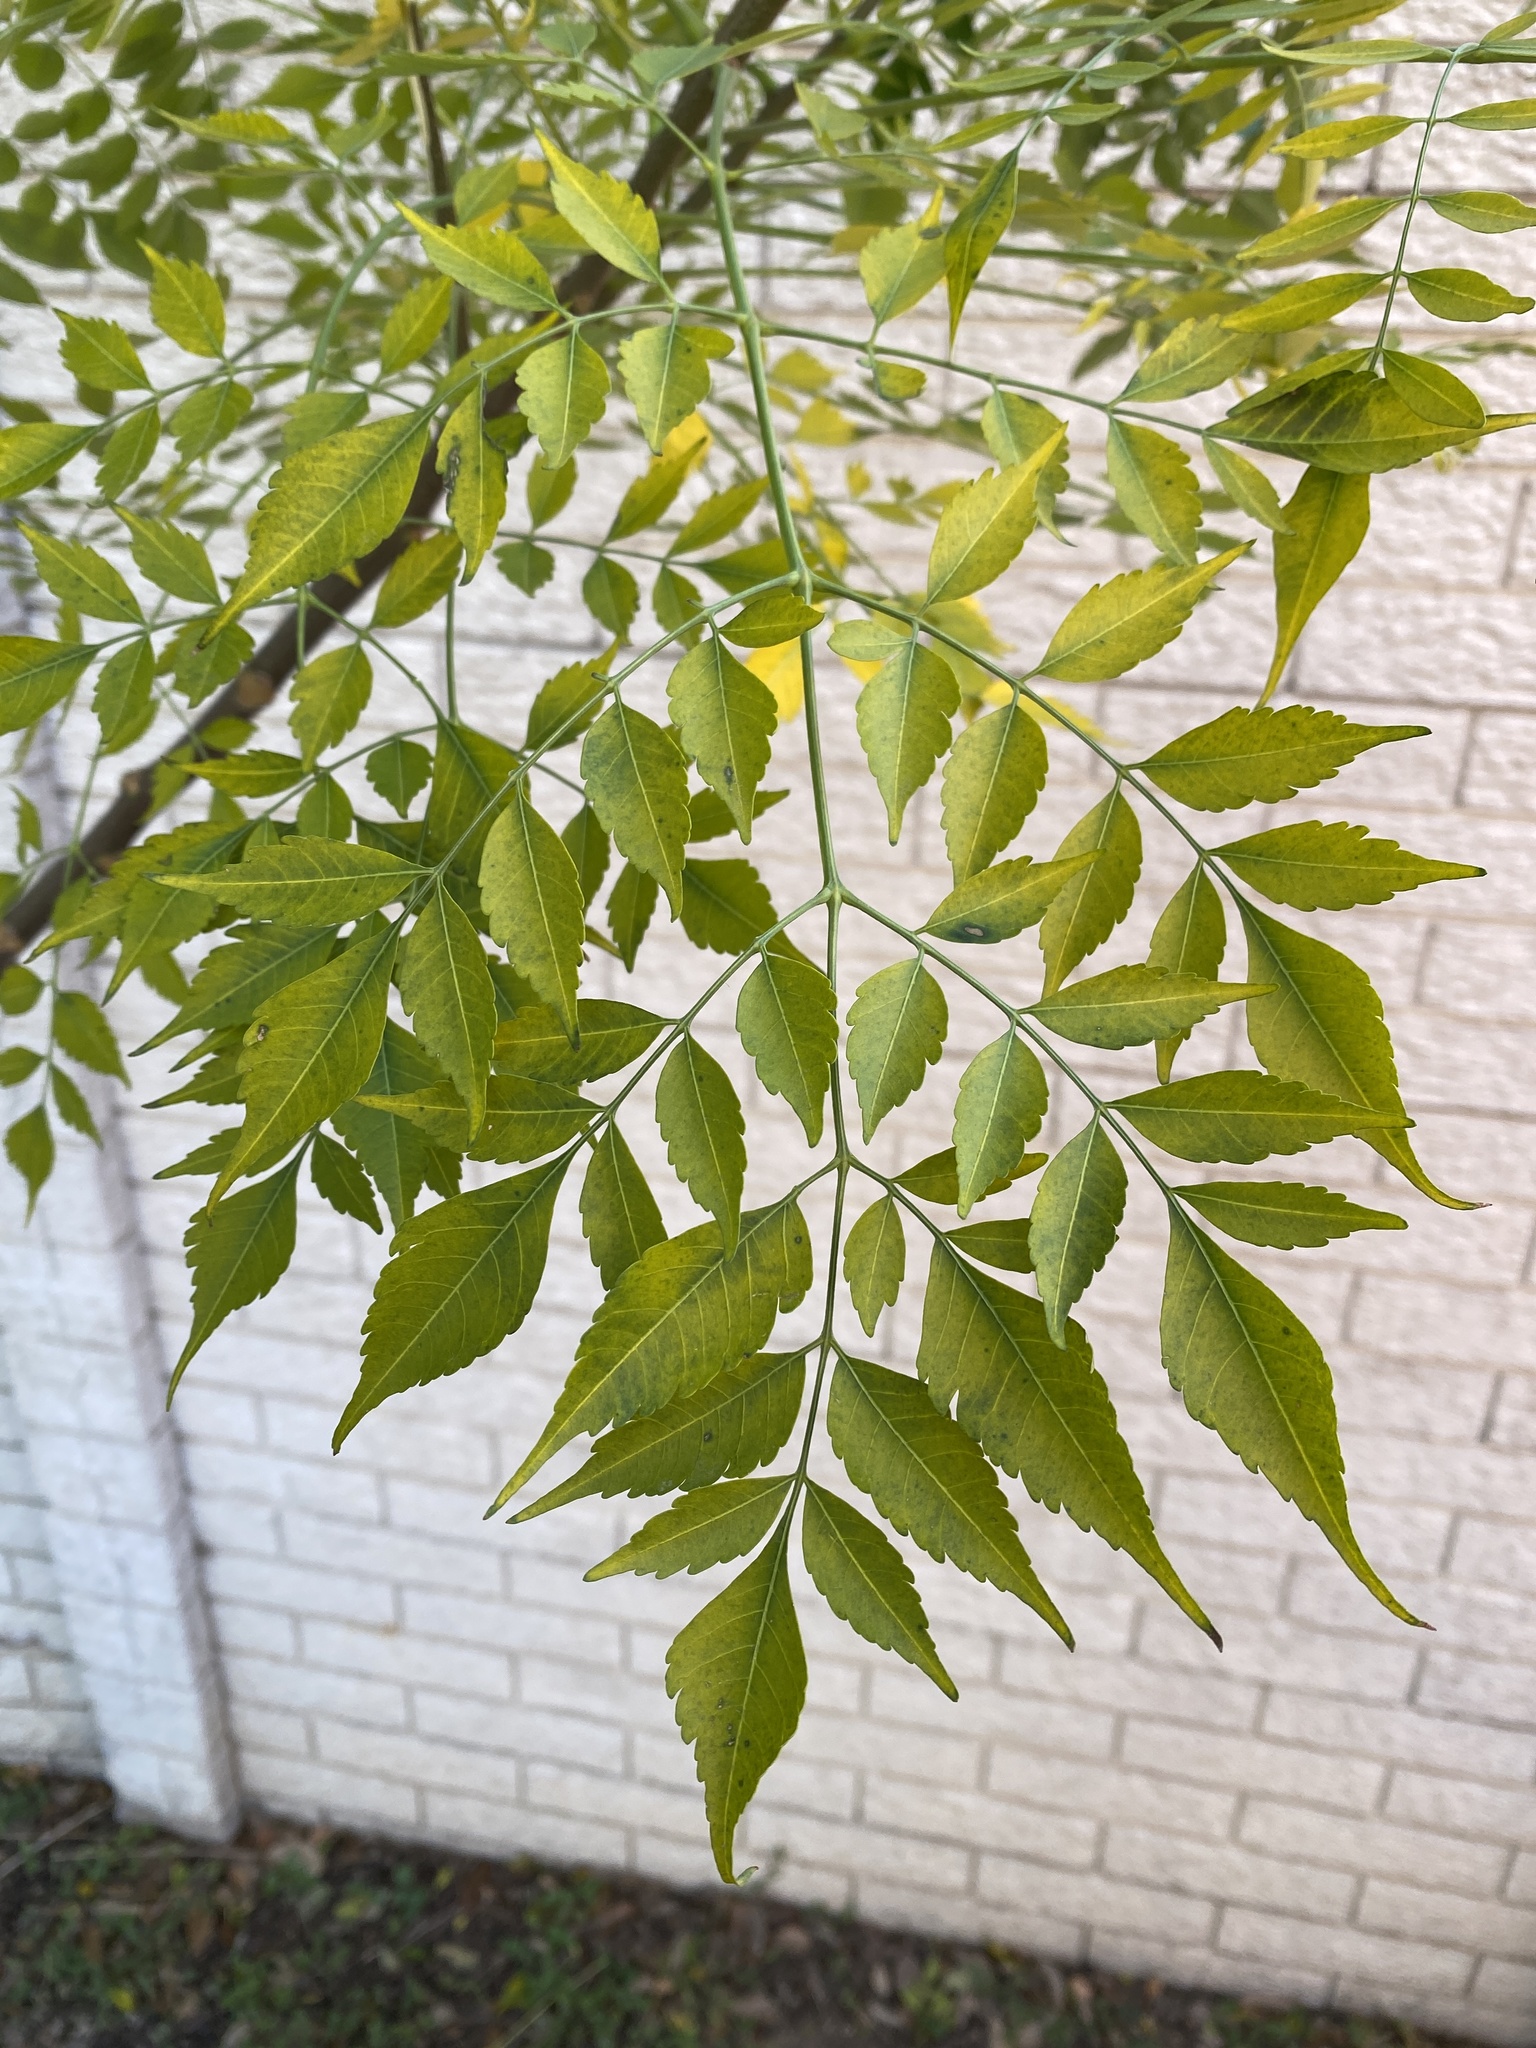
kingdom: Plantae
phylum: Tracheophyta
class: Magnoliopsida
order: Sapindales
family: Meliaceae
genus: Melia
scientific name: Melia azedarach
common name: Chinaberrytree
